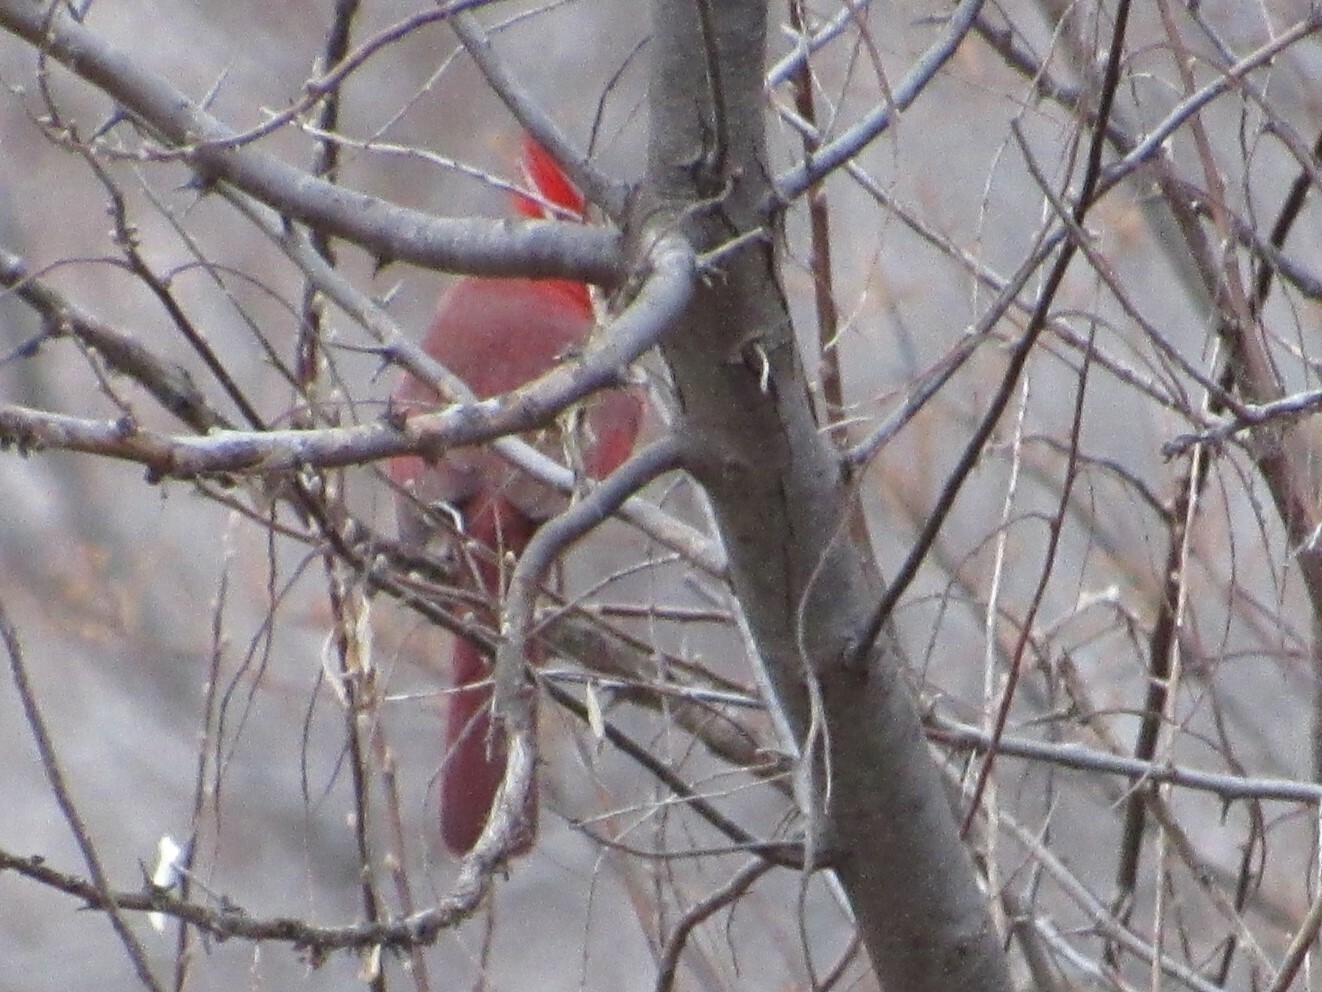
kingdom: Animalia
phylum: Chordata
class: Aves
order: Passeriformes
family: Cardinalidae
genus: Cardinalis
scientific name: Cardinalis cardinalis
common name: Northern cardinal
